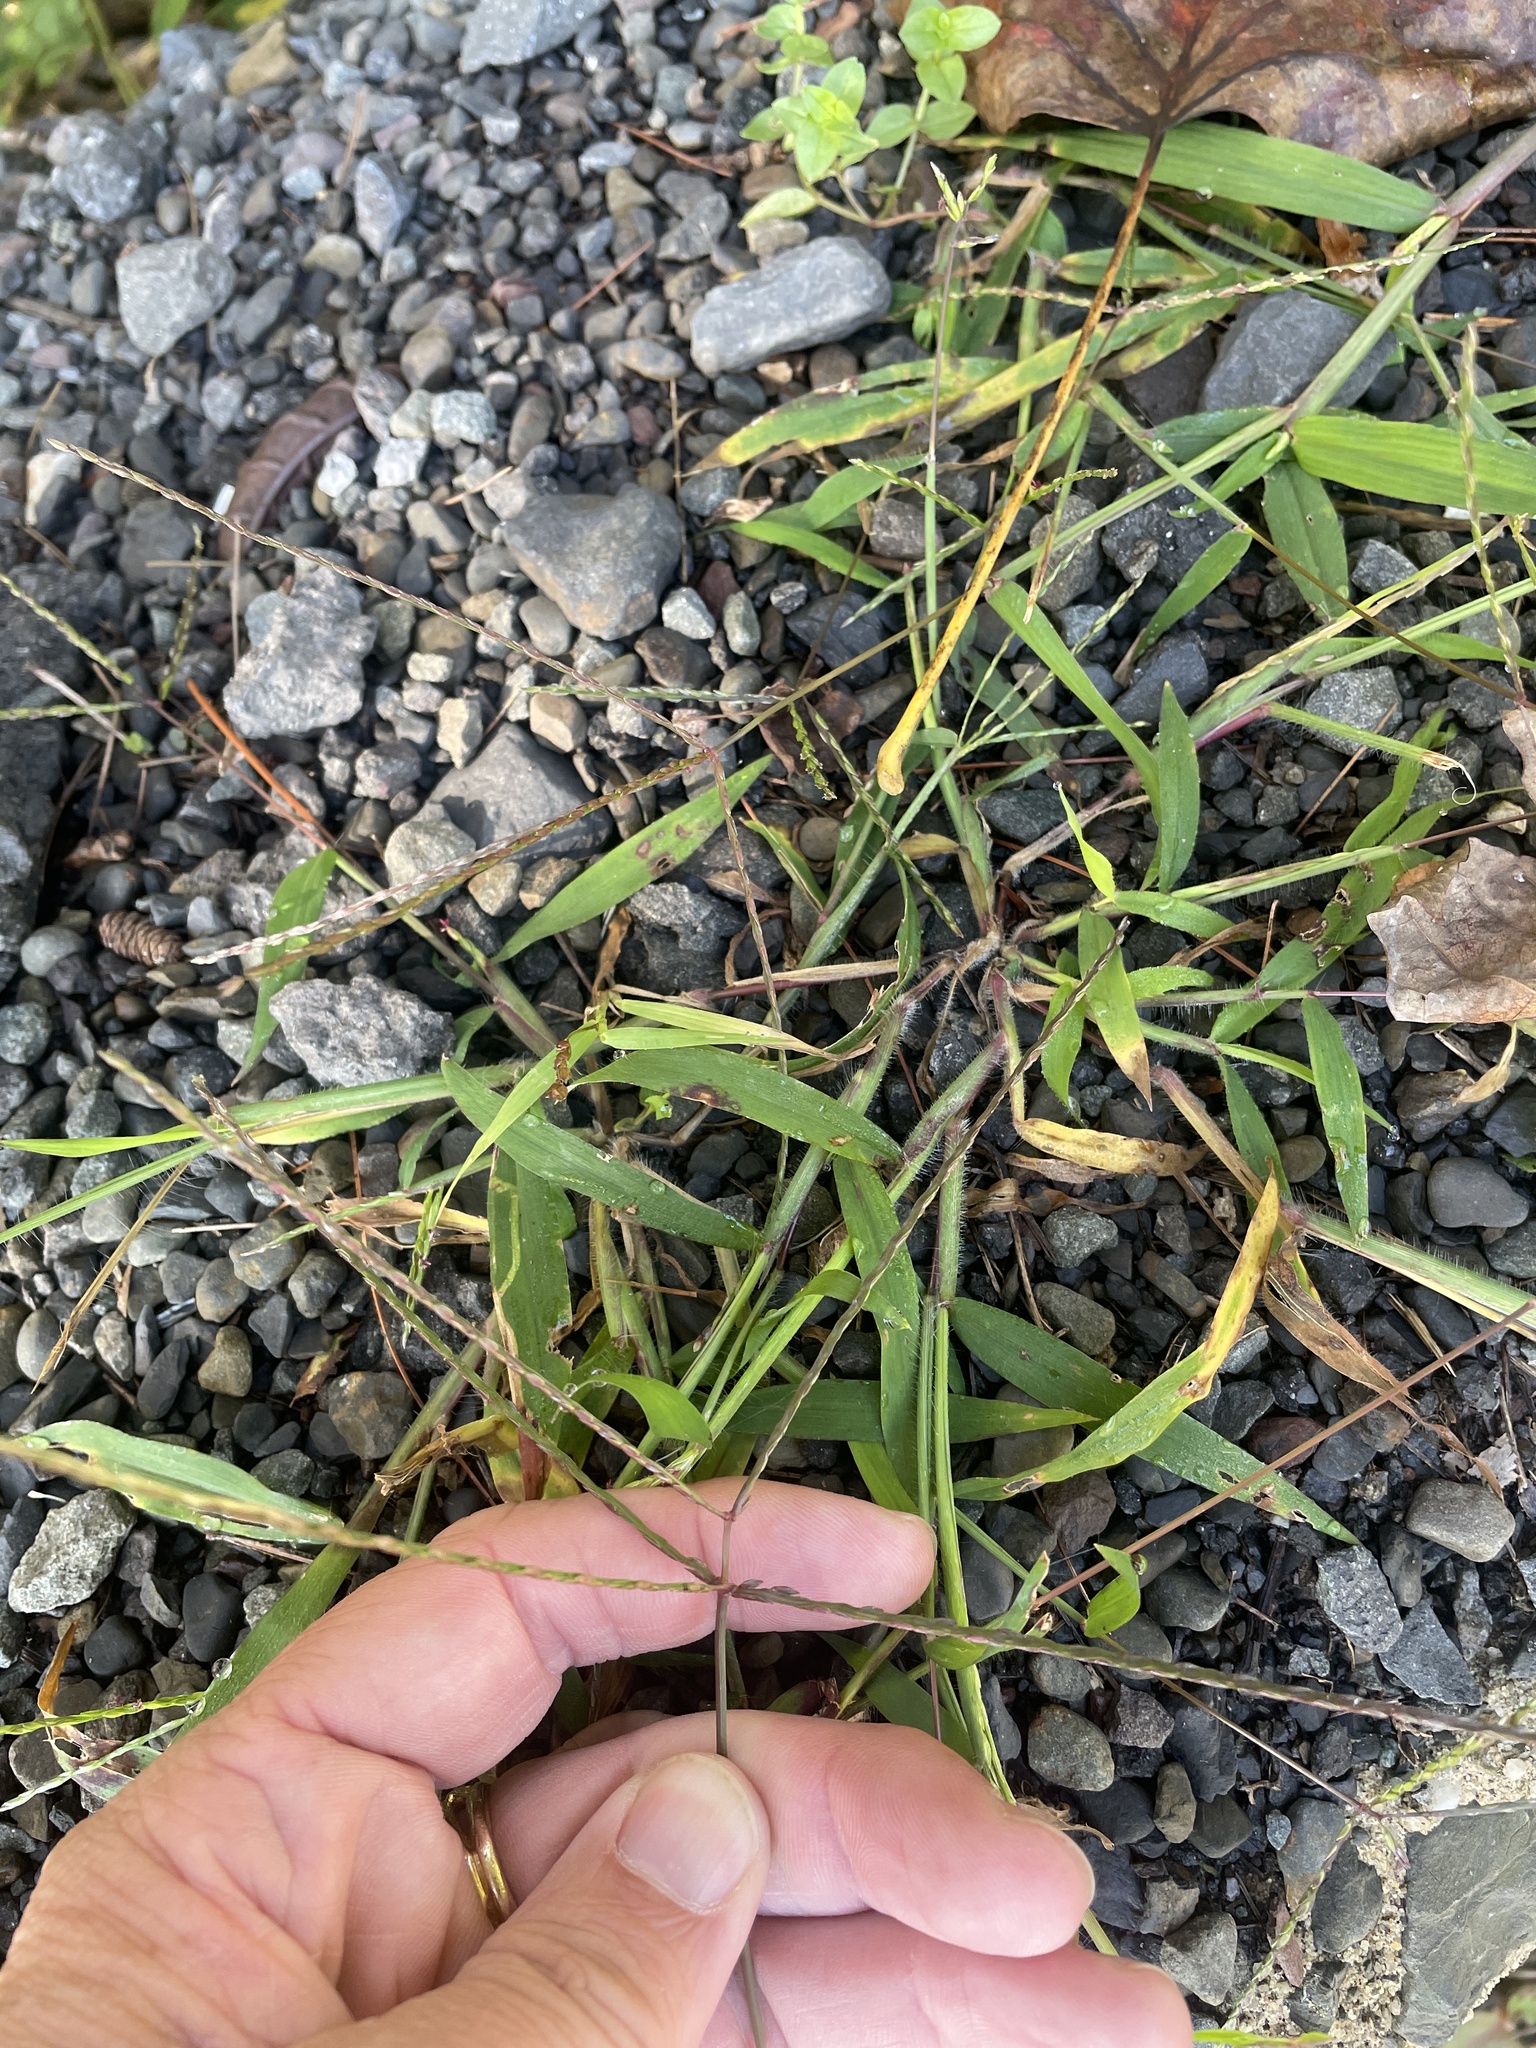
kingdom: Plantae
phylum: Tracheophyta
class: Liliopsida
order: Poales
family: Poaceae
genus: Digitaria
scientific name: Digitaria ciliaris
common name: Tropical finger-grass
